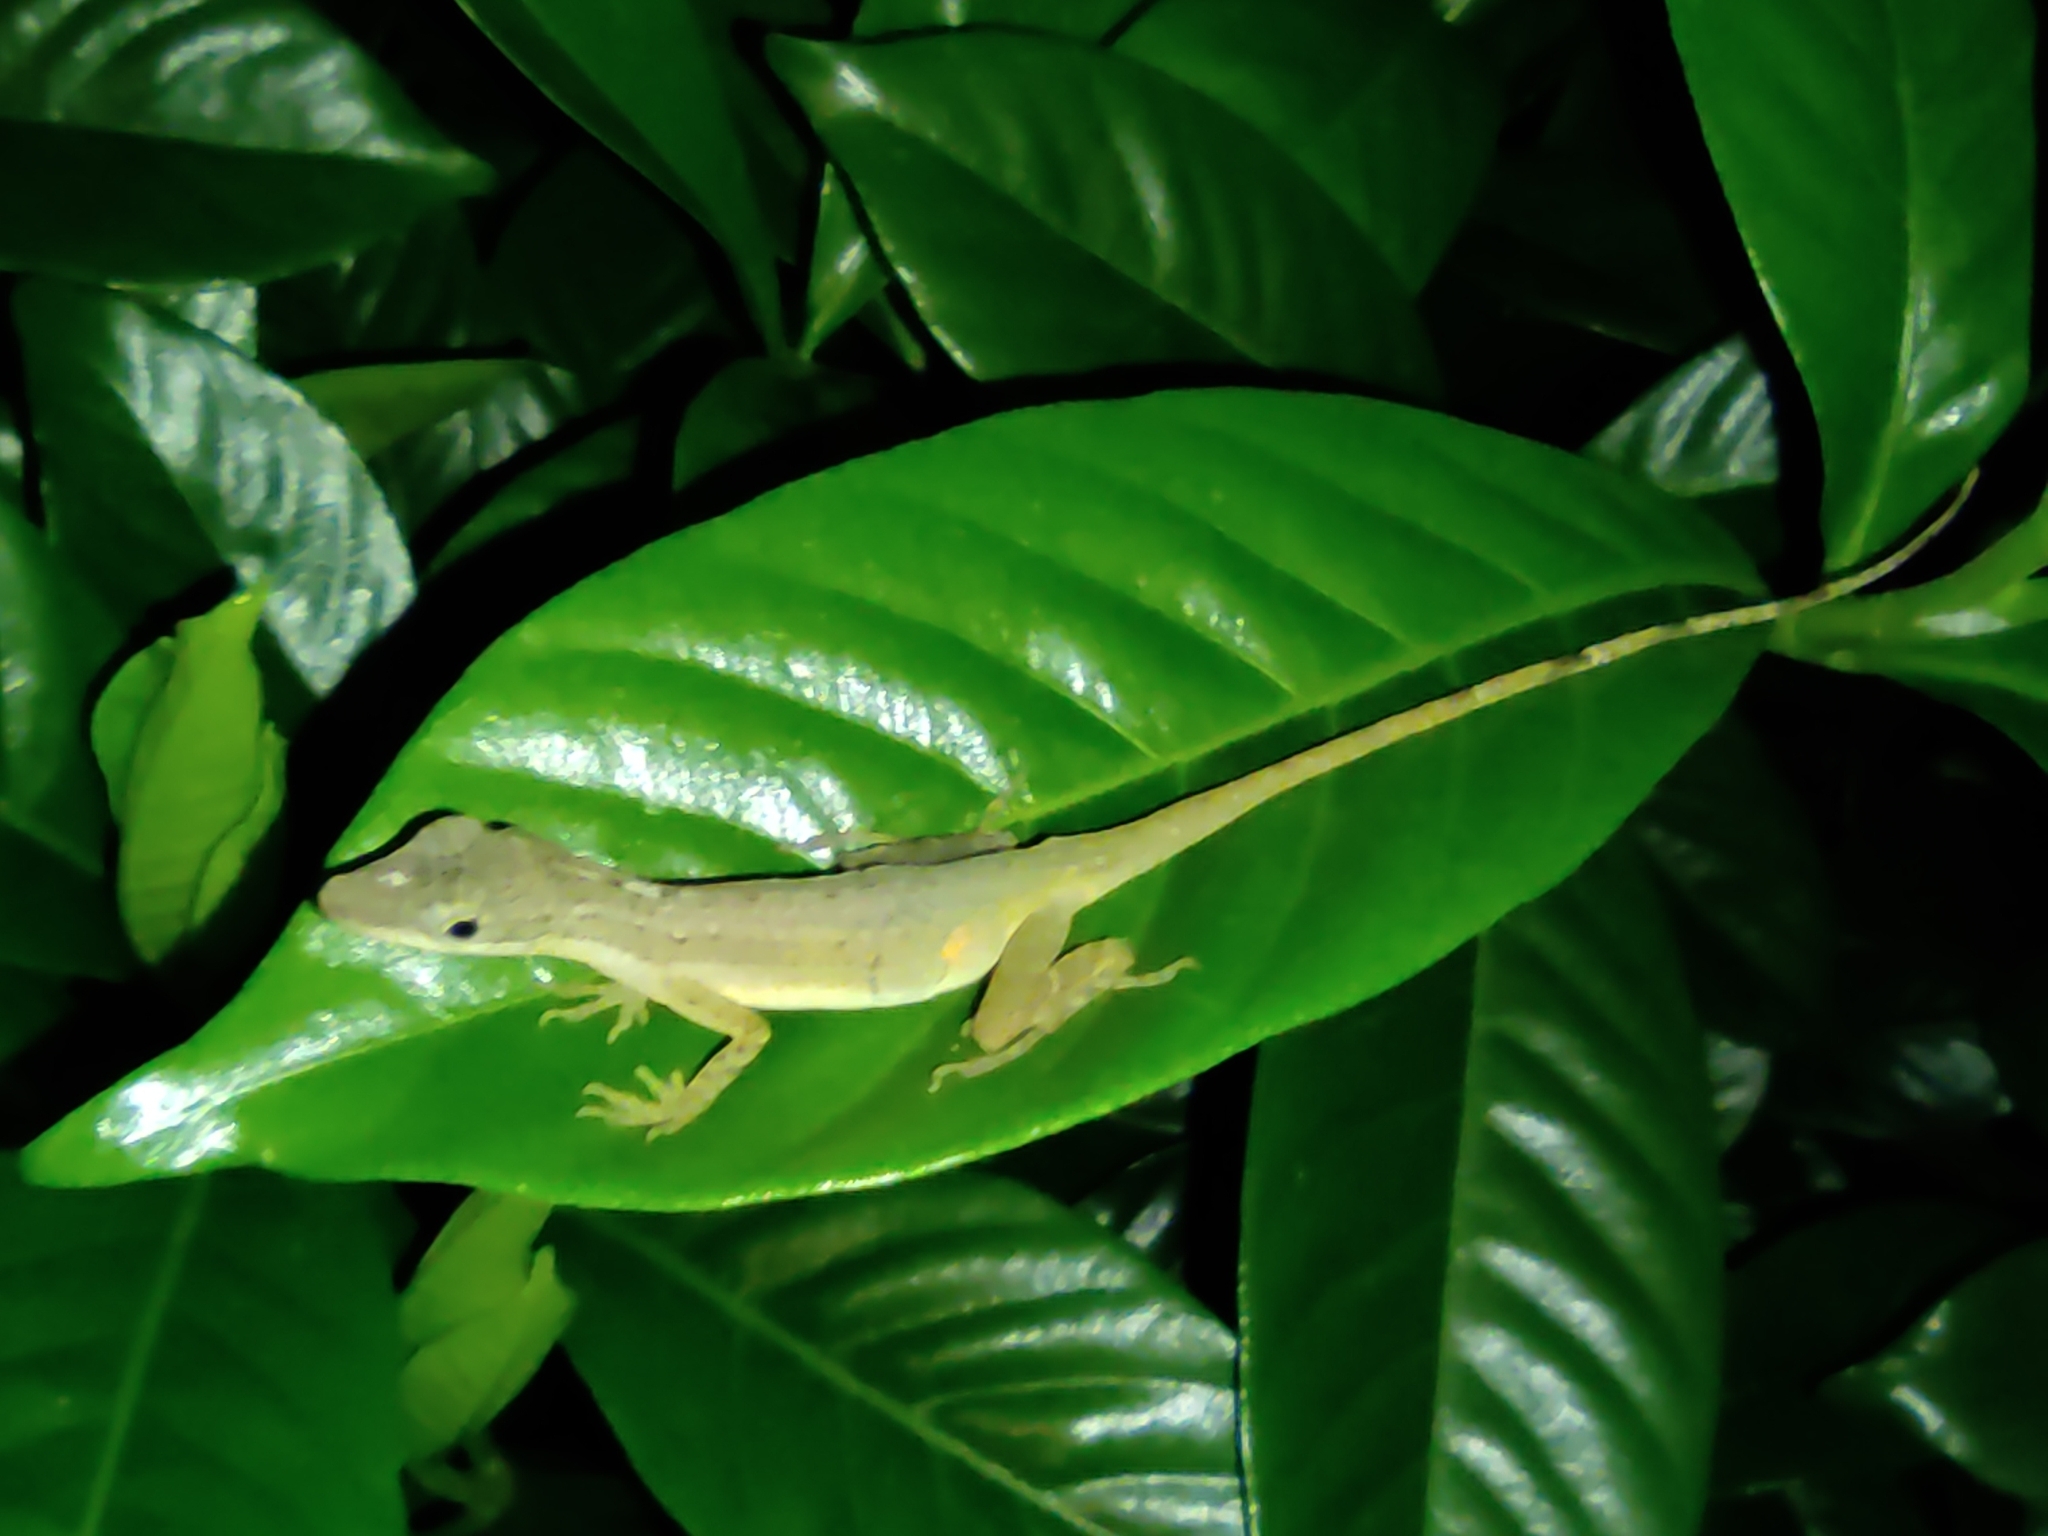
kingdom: Animalia
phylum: Chordata
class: Squamata
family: Dactyloidae
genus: Anolis
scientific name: Anolis limifrons
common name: Border anole
